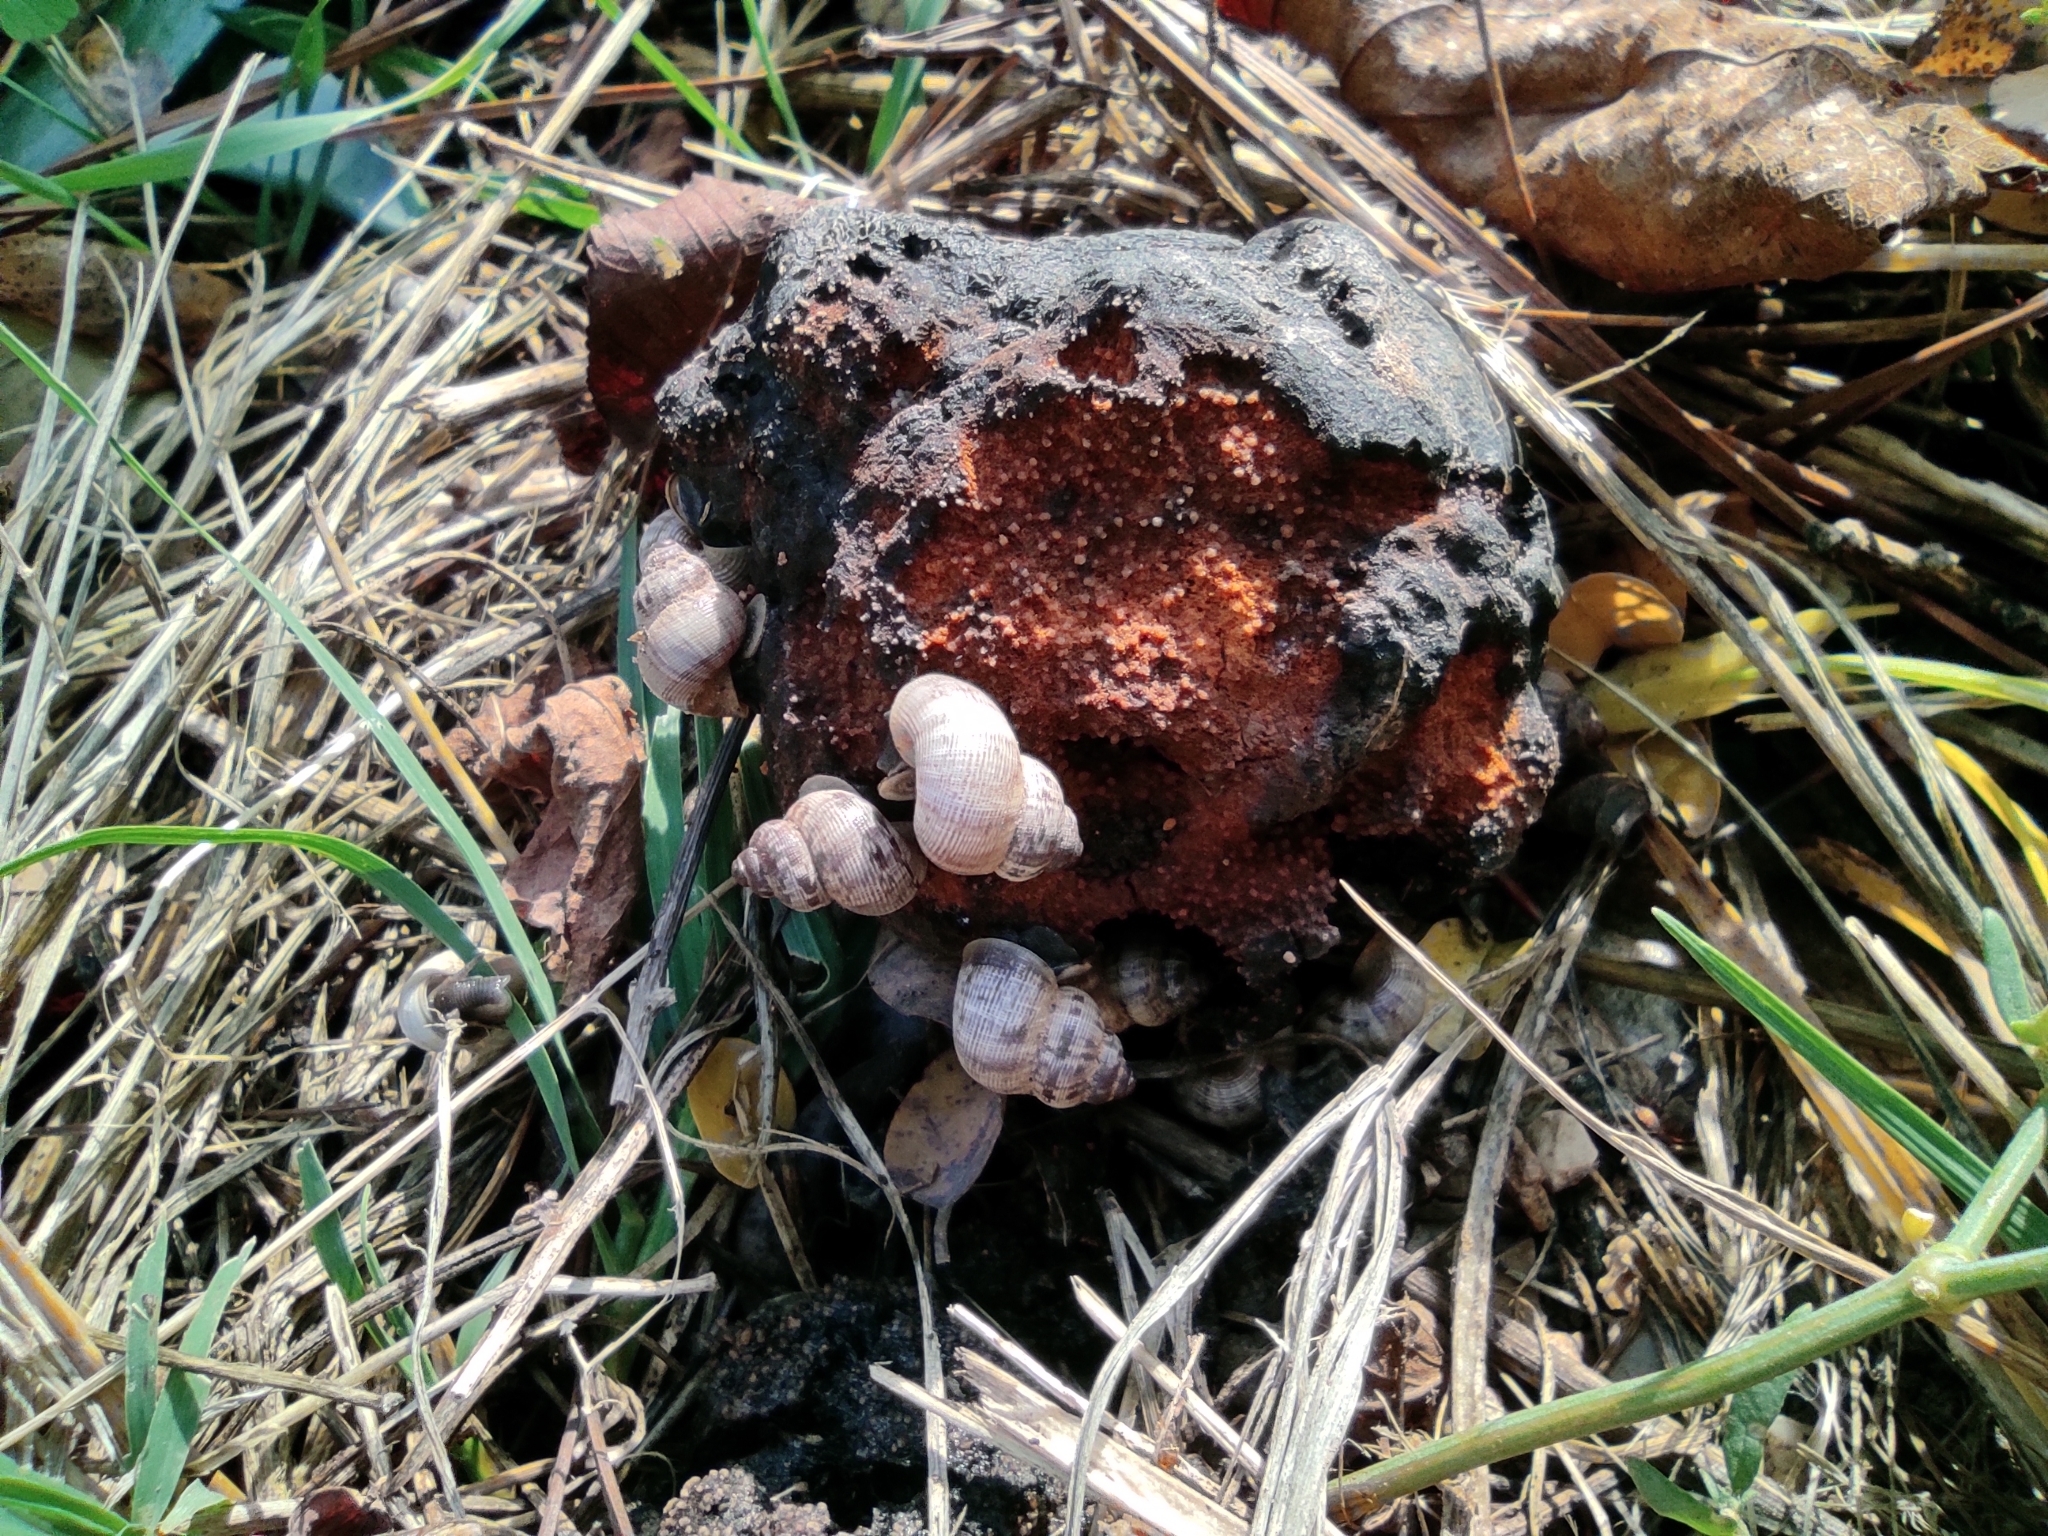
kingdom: Animalia
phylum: Mollusca
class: Gastropoda
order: Littorinimorpha
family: Pomatiidae
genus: Pomatias
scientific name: Pomatias elegans
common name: Red-mouthed snail
